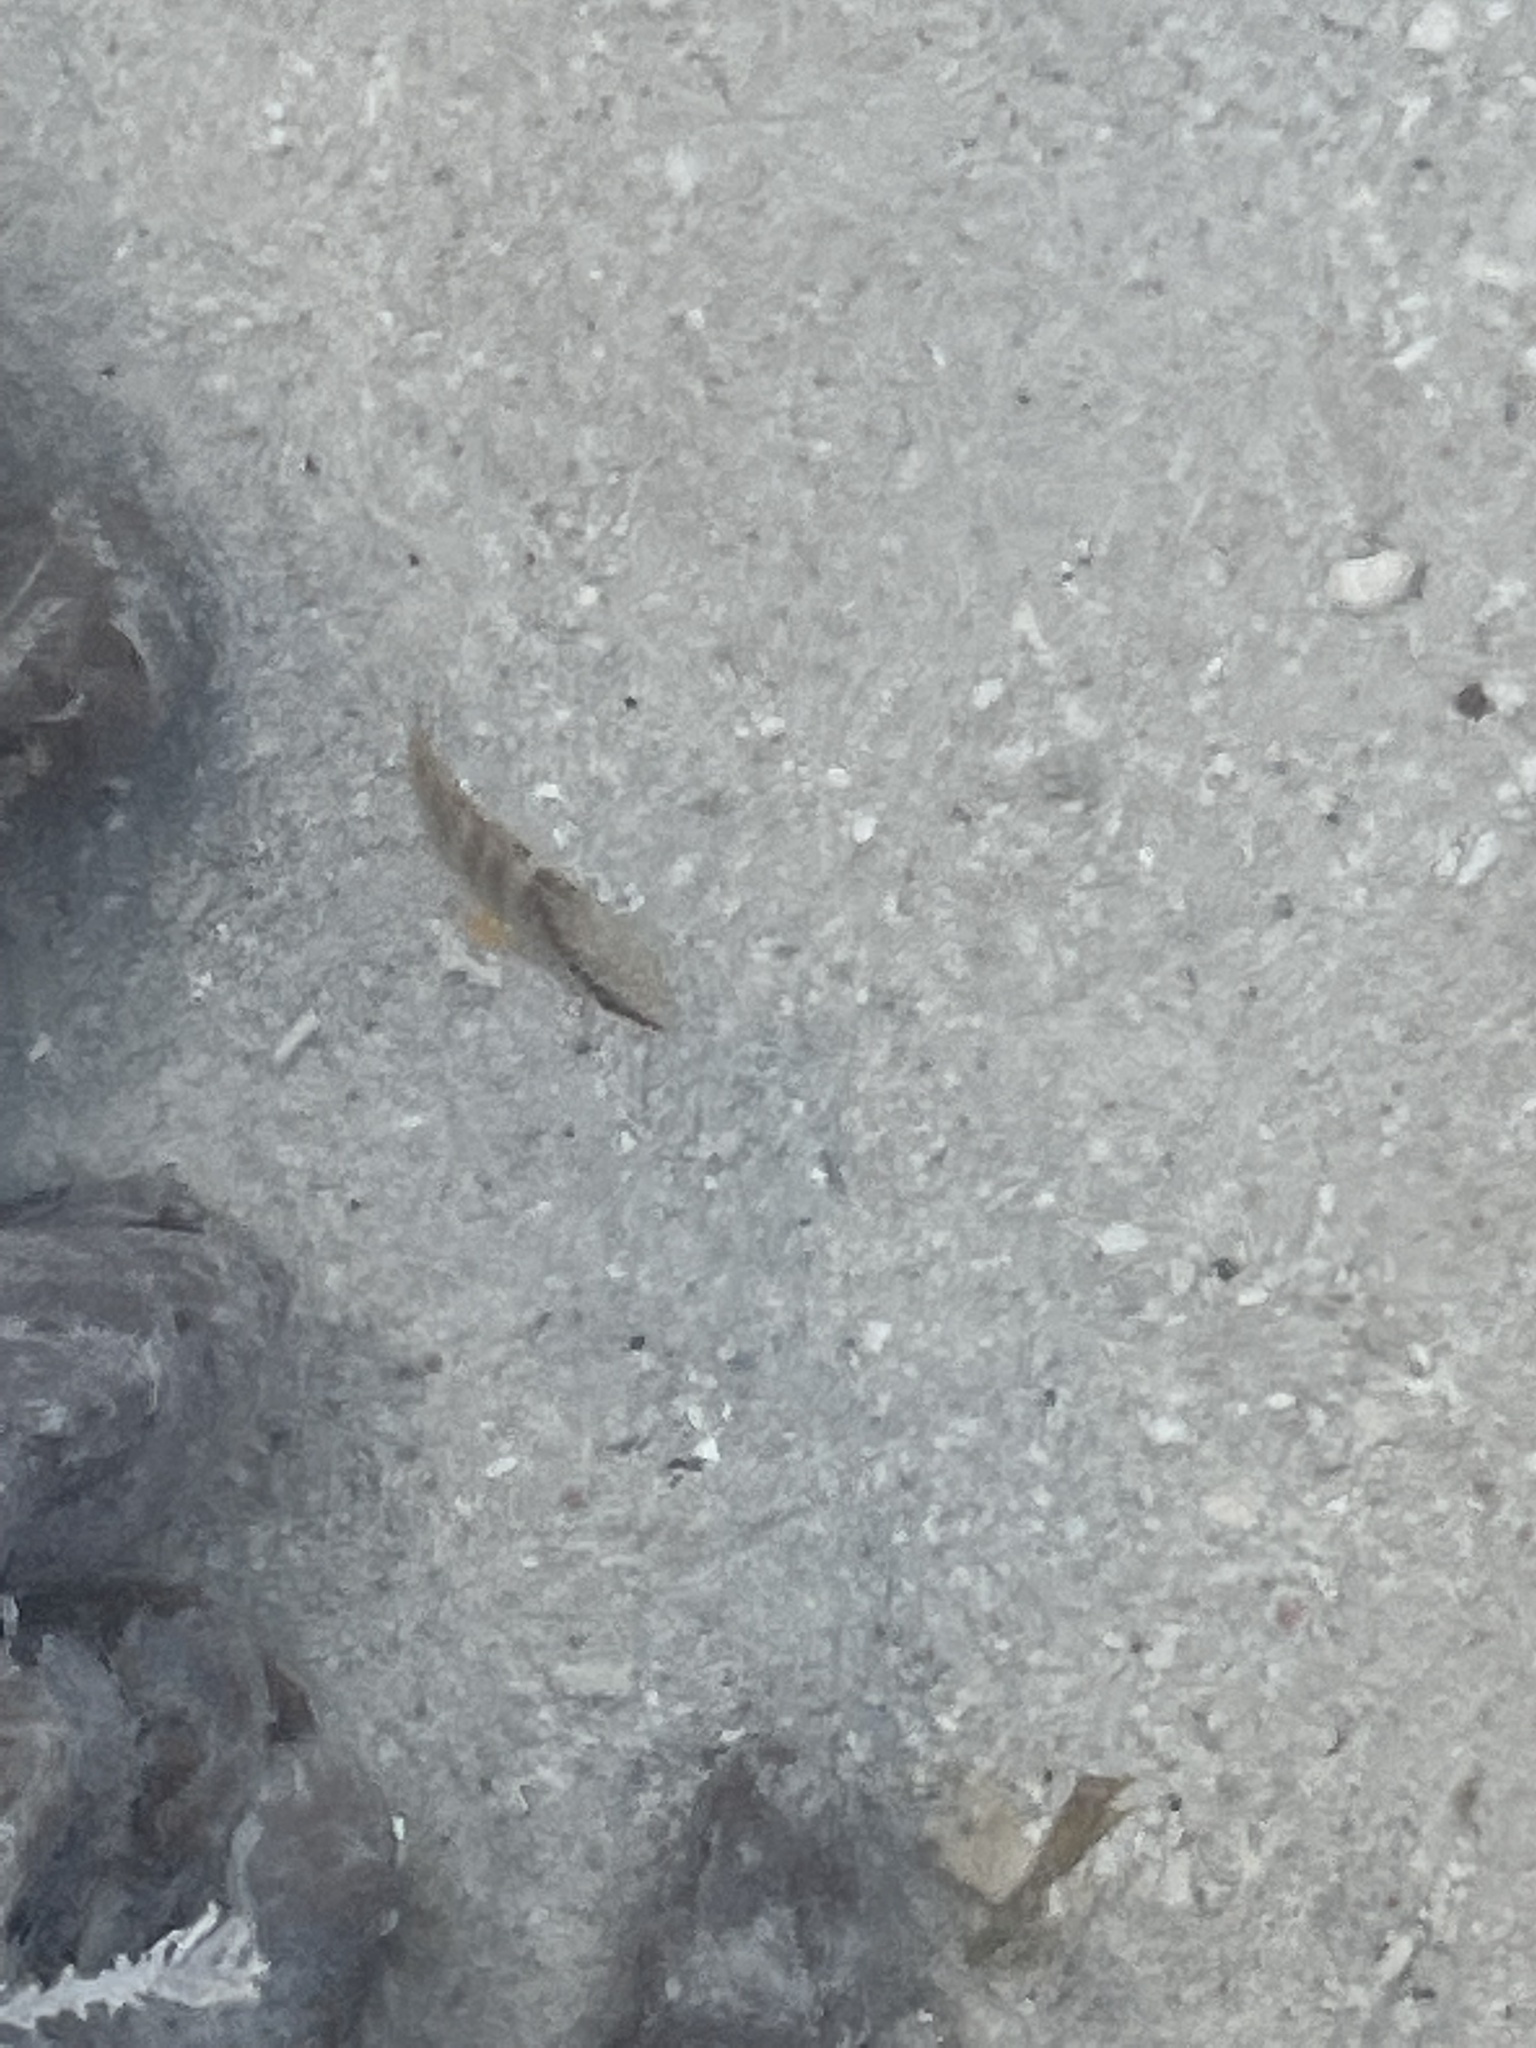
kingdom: Animalia
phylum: Chordata
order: Perciformes
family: Lutjanidae
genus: Lutjanus
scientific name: Lutjanus apodus
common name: Schoolmaster
